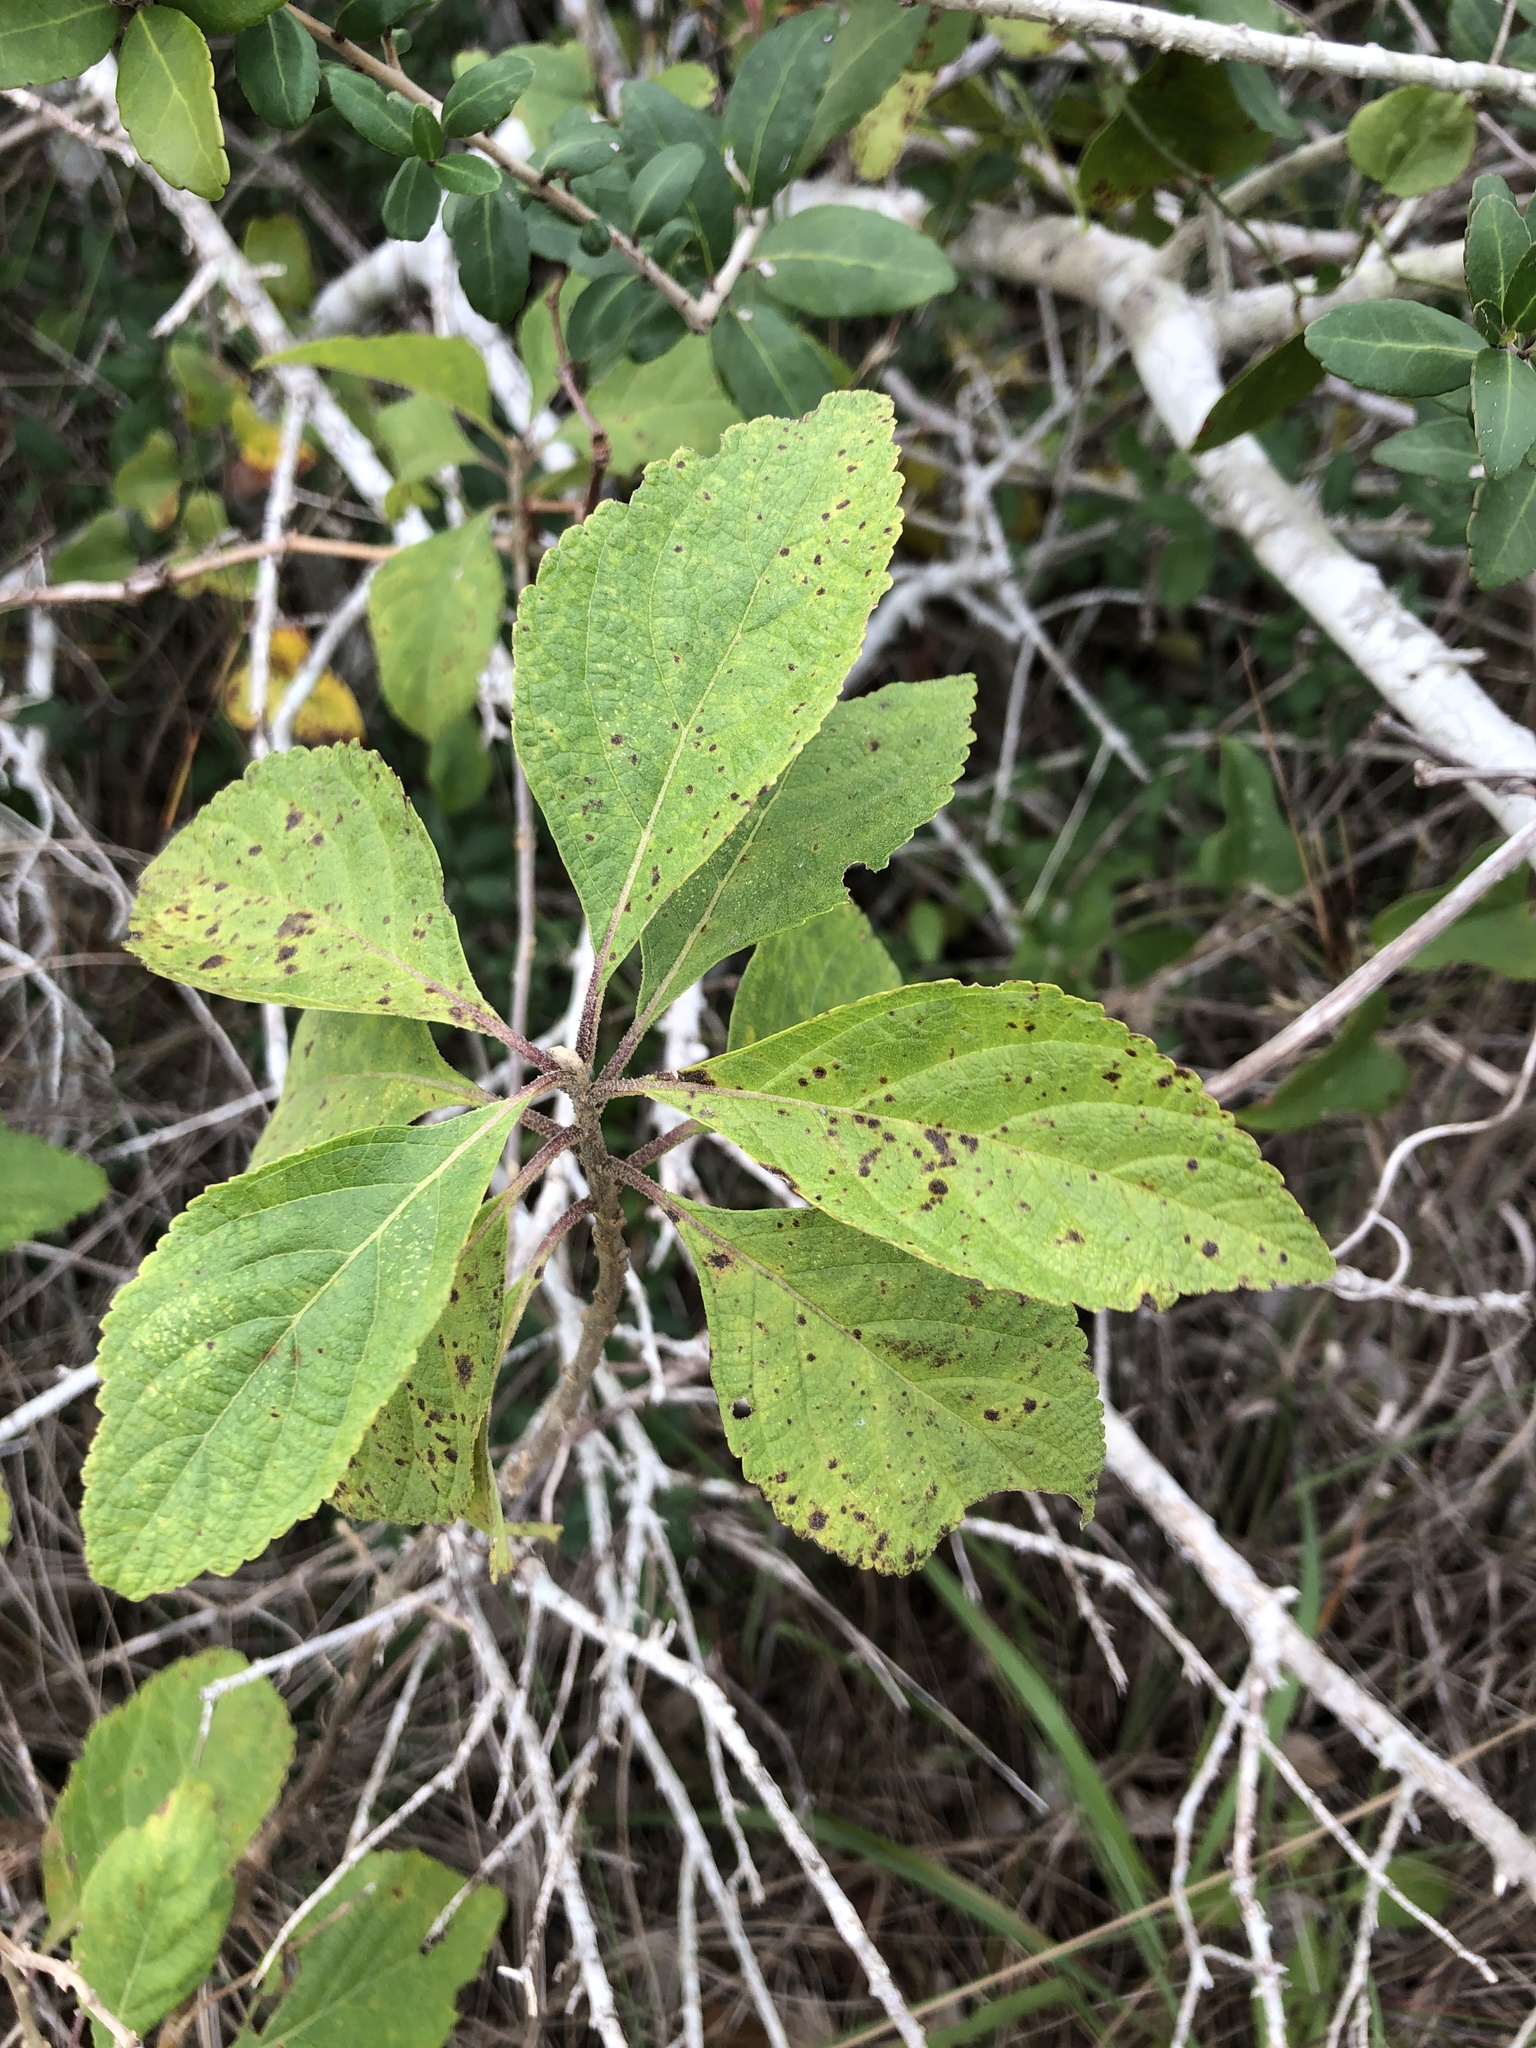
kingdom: Plantae
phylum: Tracheophyta
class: Magnoliopsida
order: Lamiales
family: Lamiaceae
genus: Callicarpa
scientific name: Callicarpa americana
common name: American beautyberry
